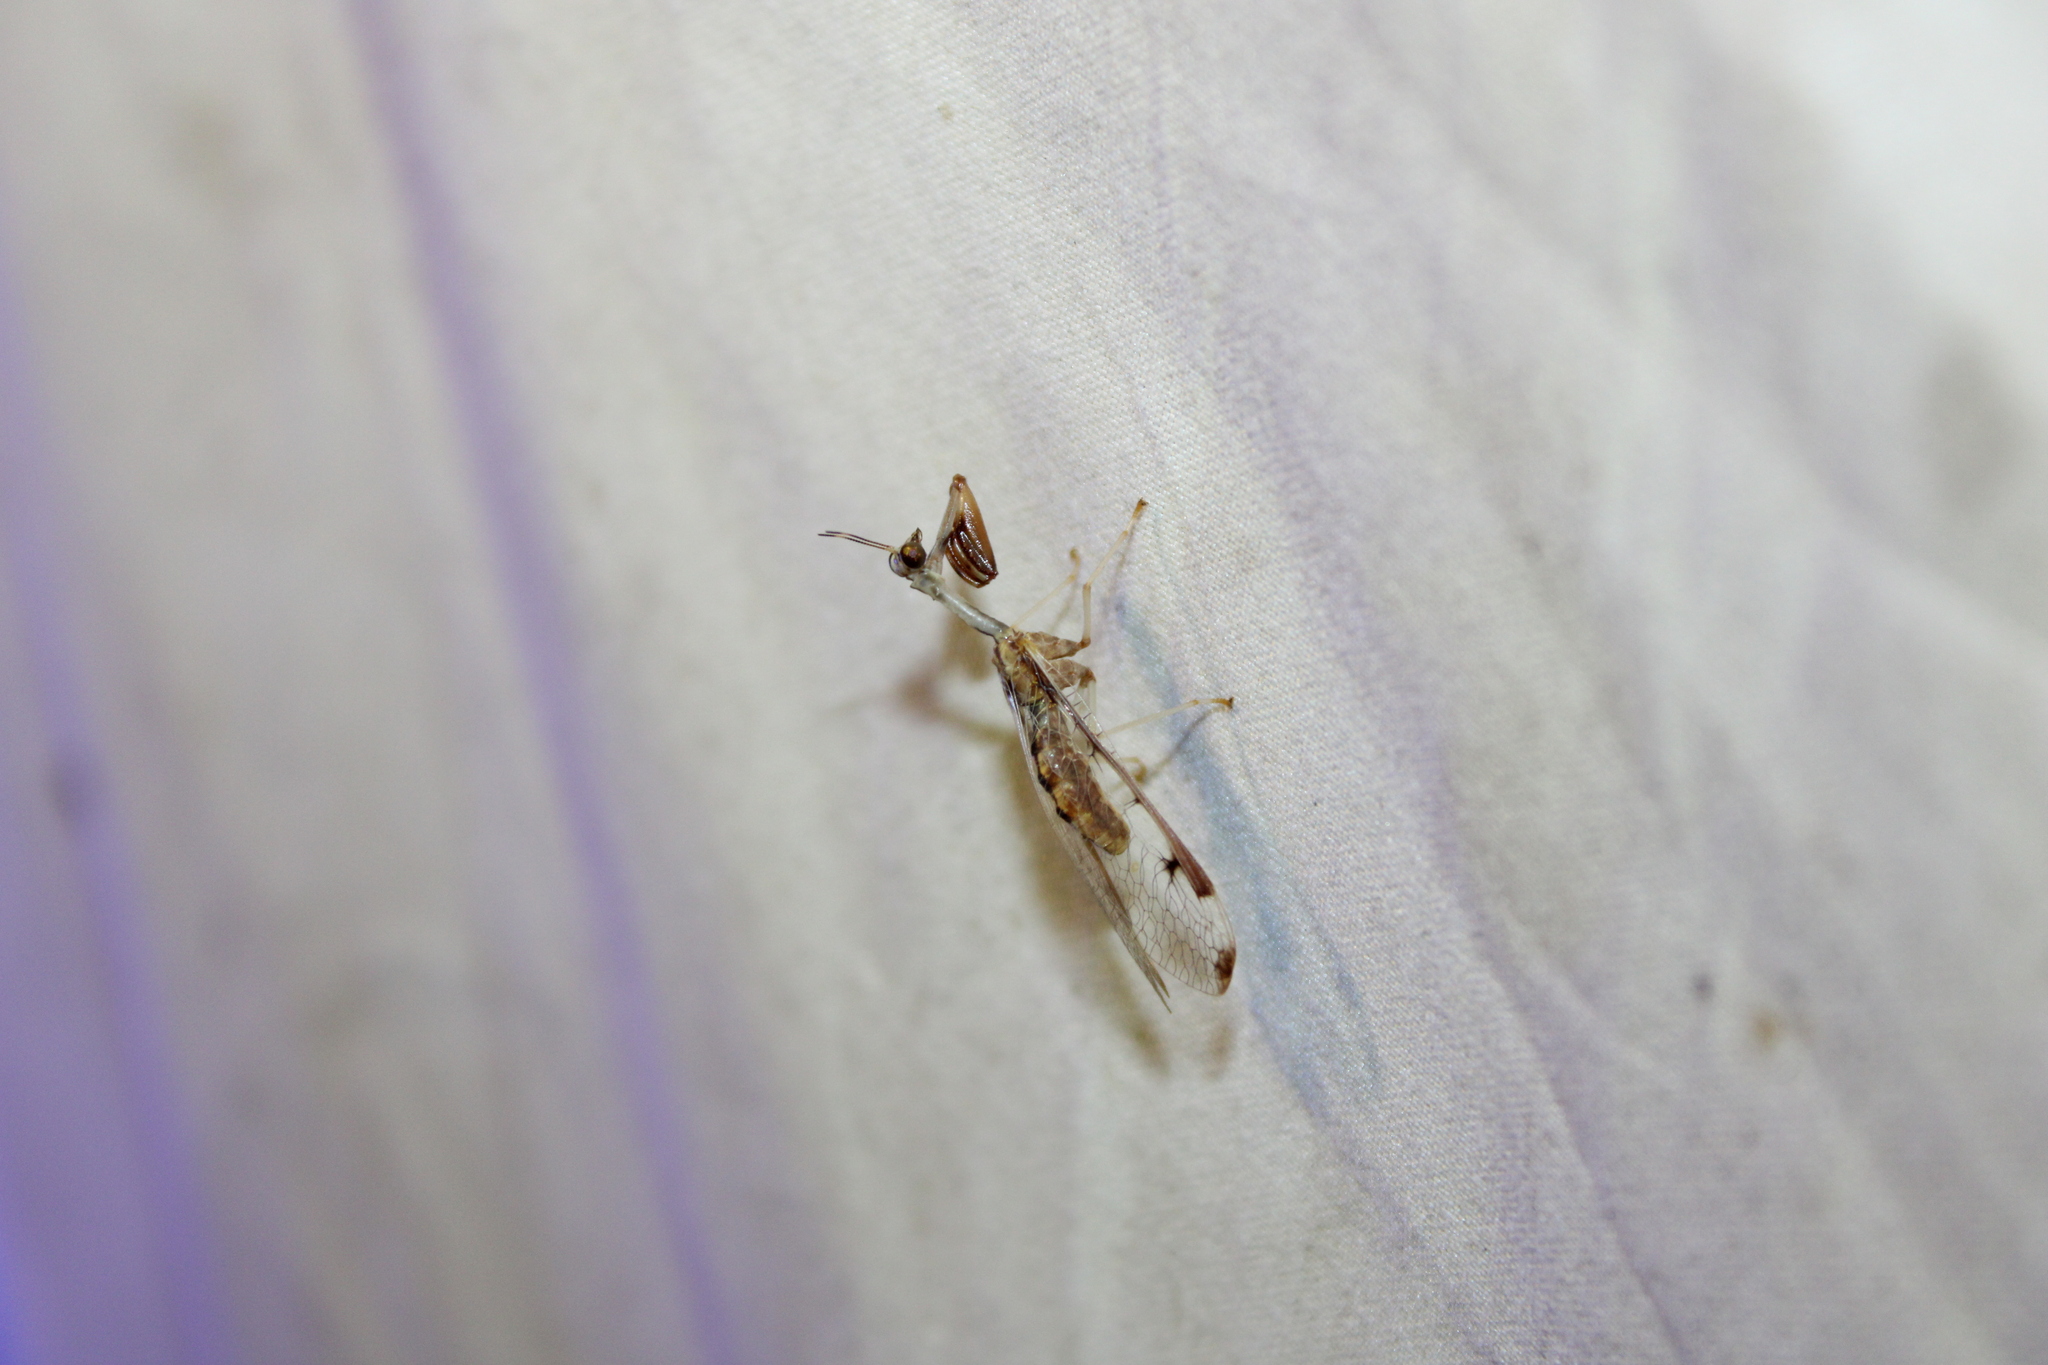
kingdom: Animalia
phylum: Arthropoda
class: Insecta
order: Neuroptera
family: Mantispidae
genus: Dicromantispa
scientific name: Dicromantispa interrupta
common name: Four-spotted mantidfly
